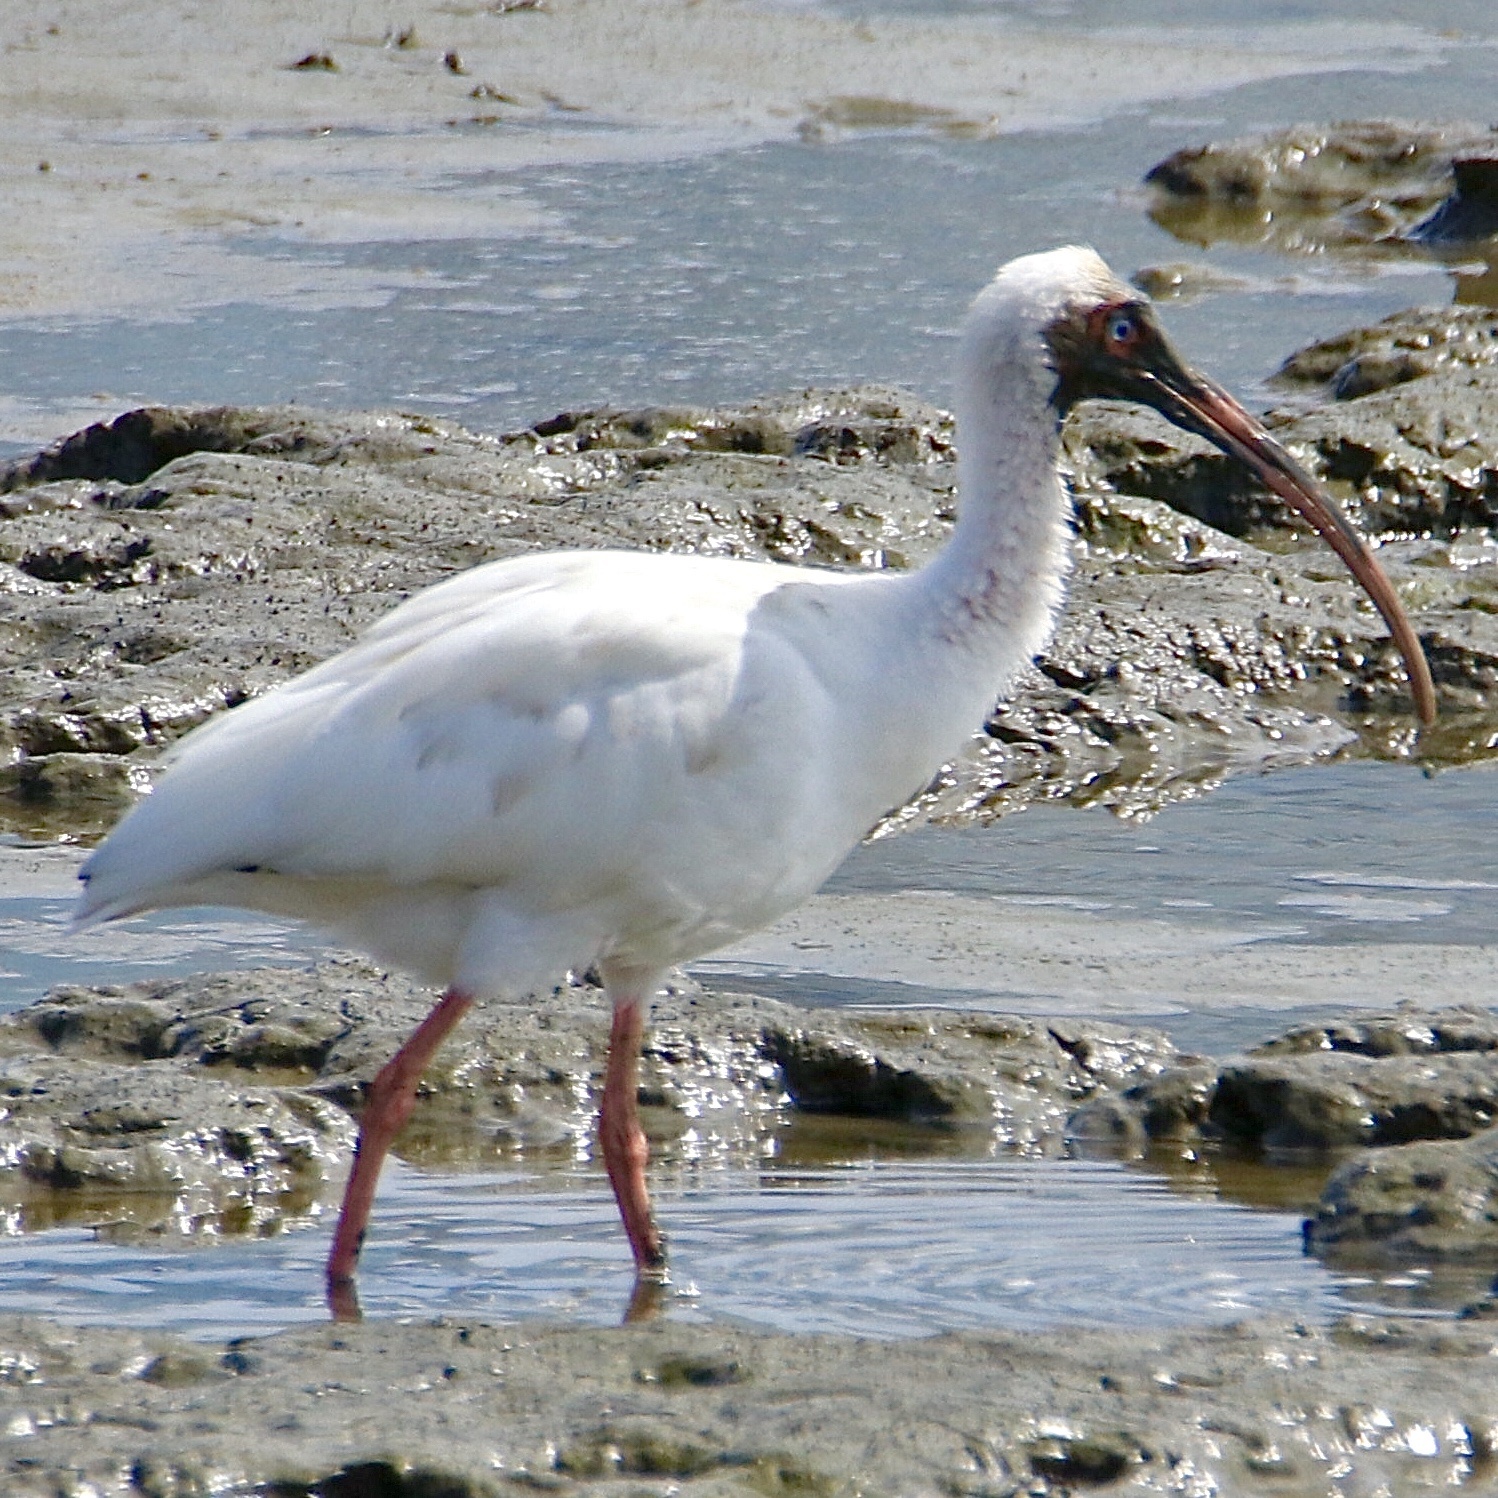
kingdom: Animalia
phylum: Chordata
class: Aves
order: Pelecaniformes
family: Threskiornithidae
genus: Eudocimus
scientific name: Eudocimus albus
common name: White ibis
